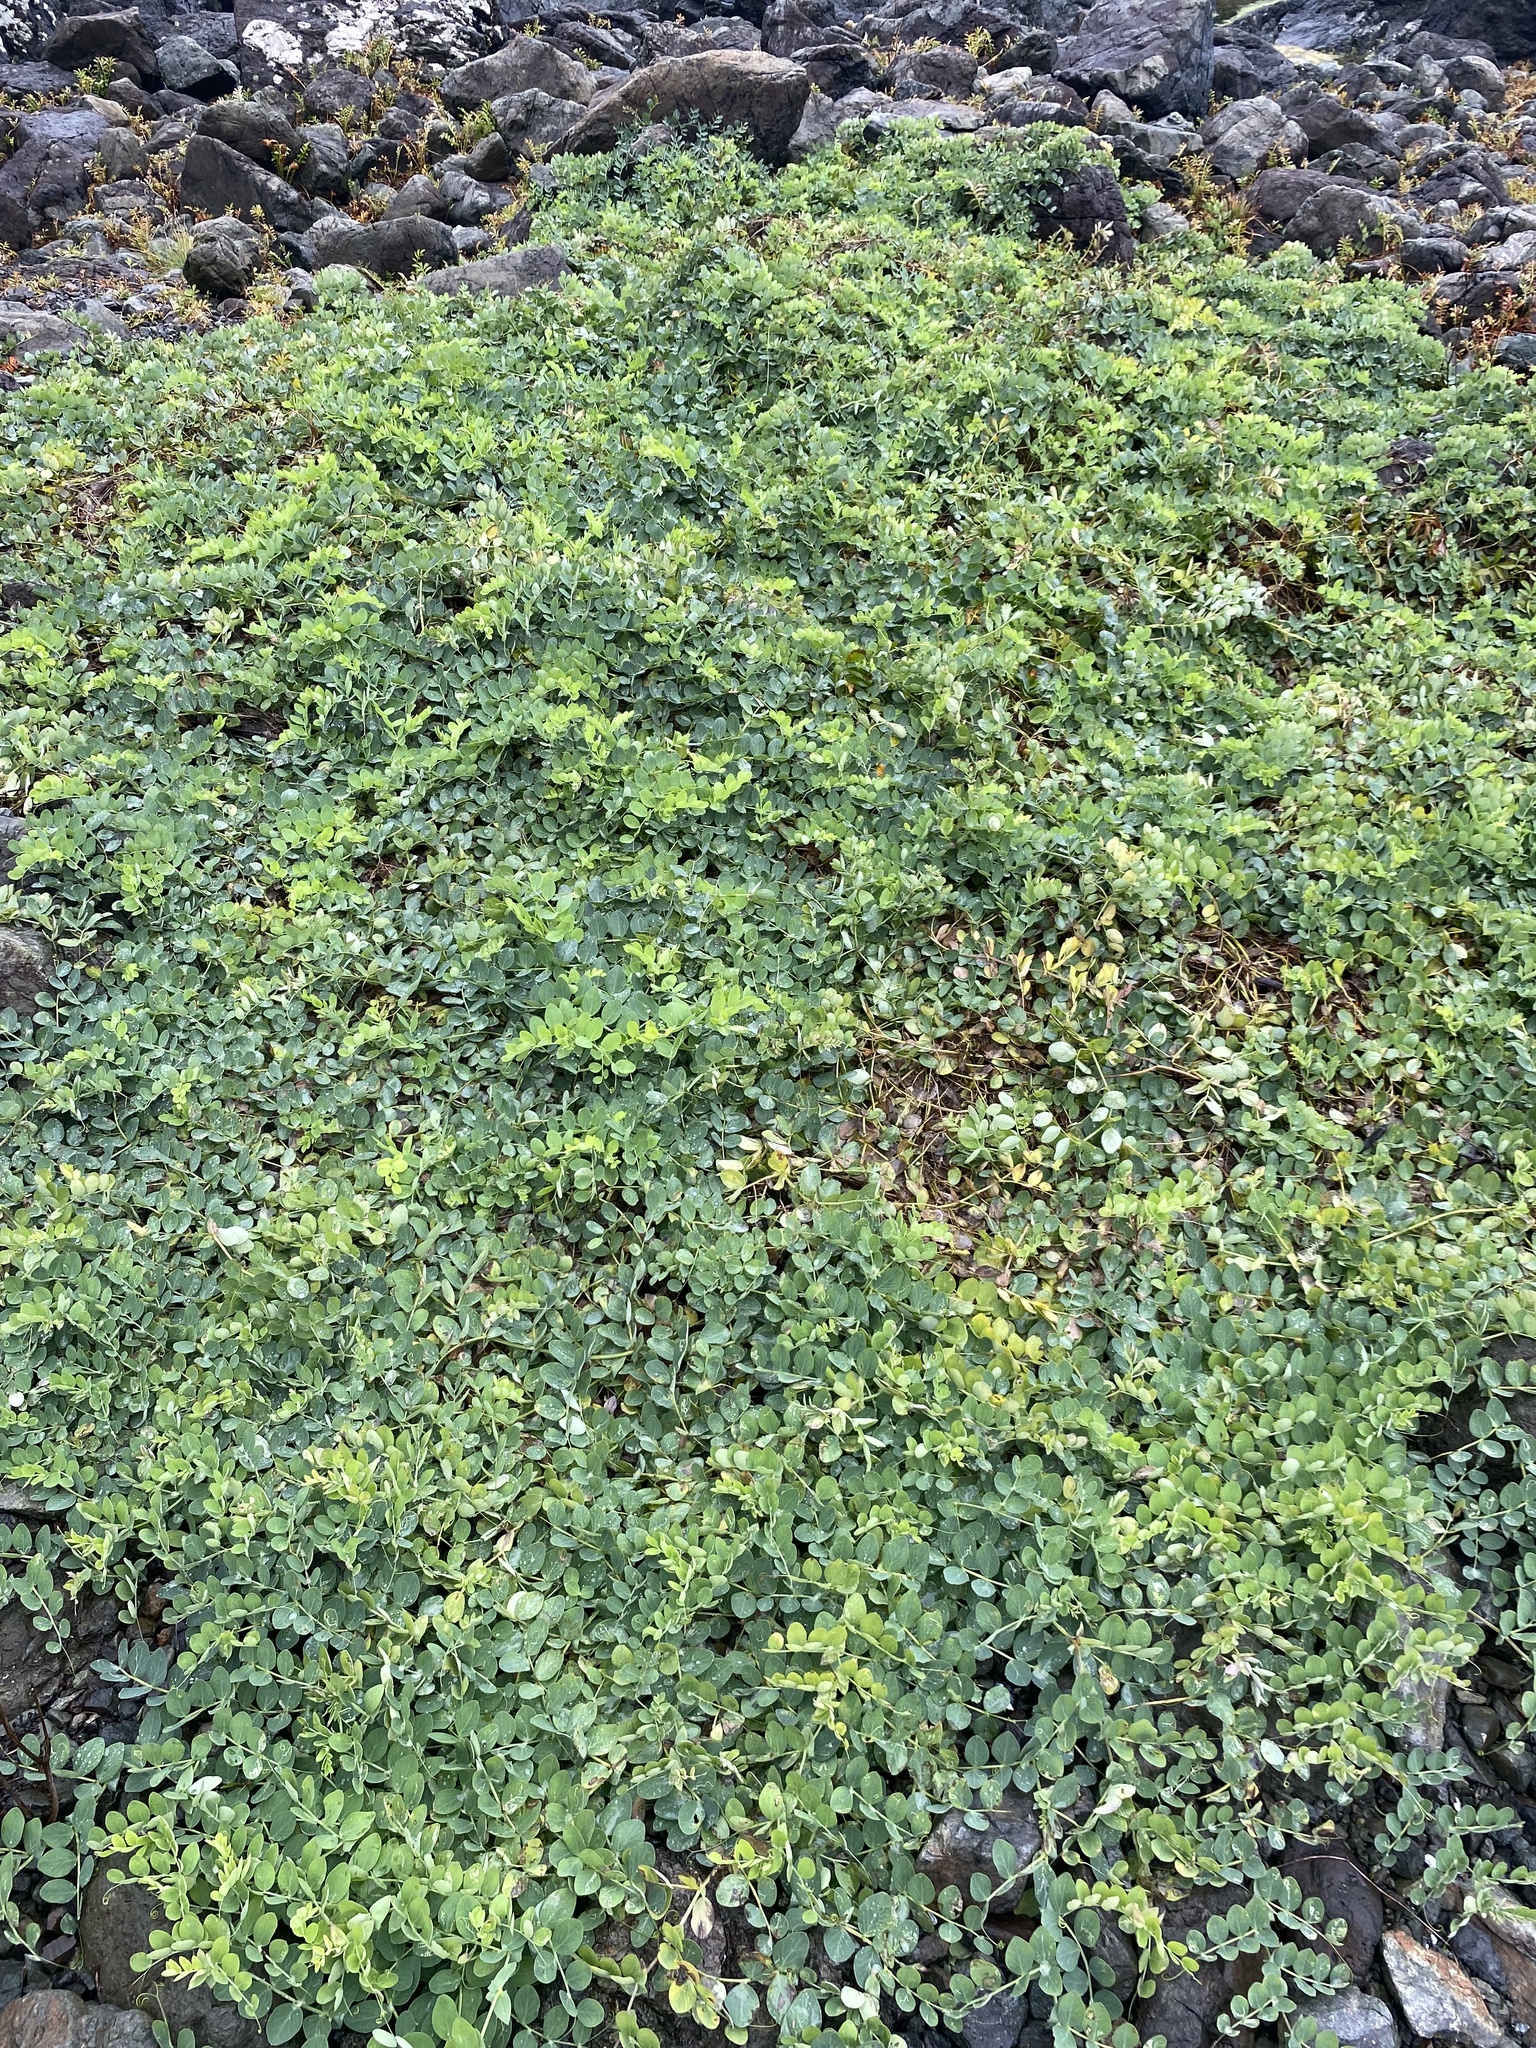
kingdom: Plantae
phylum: Tracheophyta
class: Magnoliopsida
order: Fabales
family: Fabaceae
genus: Lathyrus
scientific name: Lathyrus japonicus
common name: Sea pea
